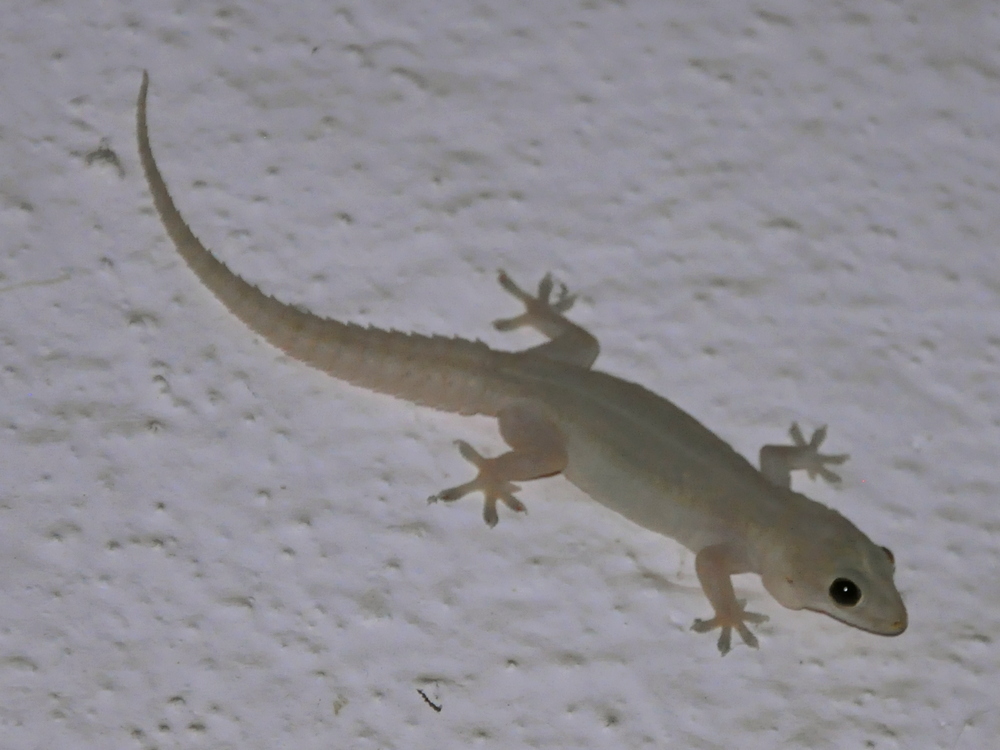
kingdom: Animalia
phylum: Chordata
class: Squamata
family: Gekkonidae
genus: Hemidactylus
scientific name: Hemidactylus frenatus
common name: Common house gecko
